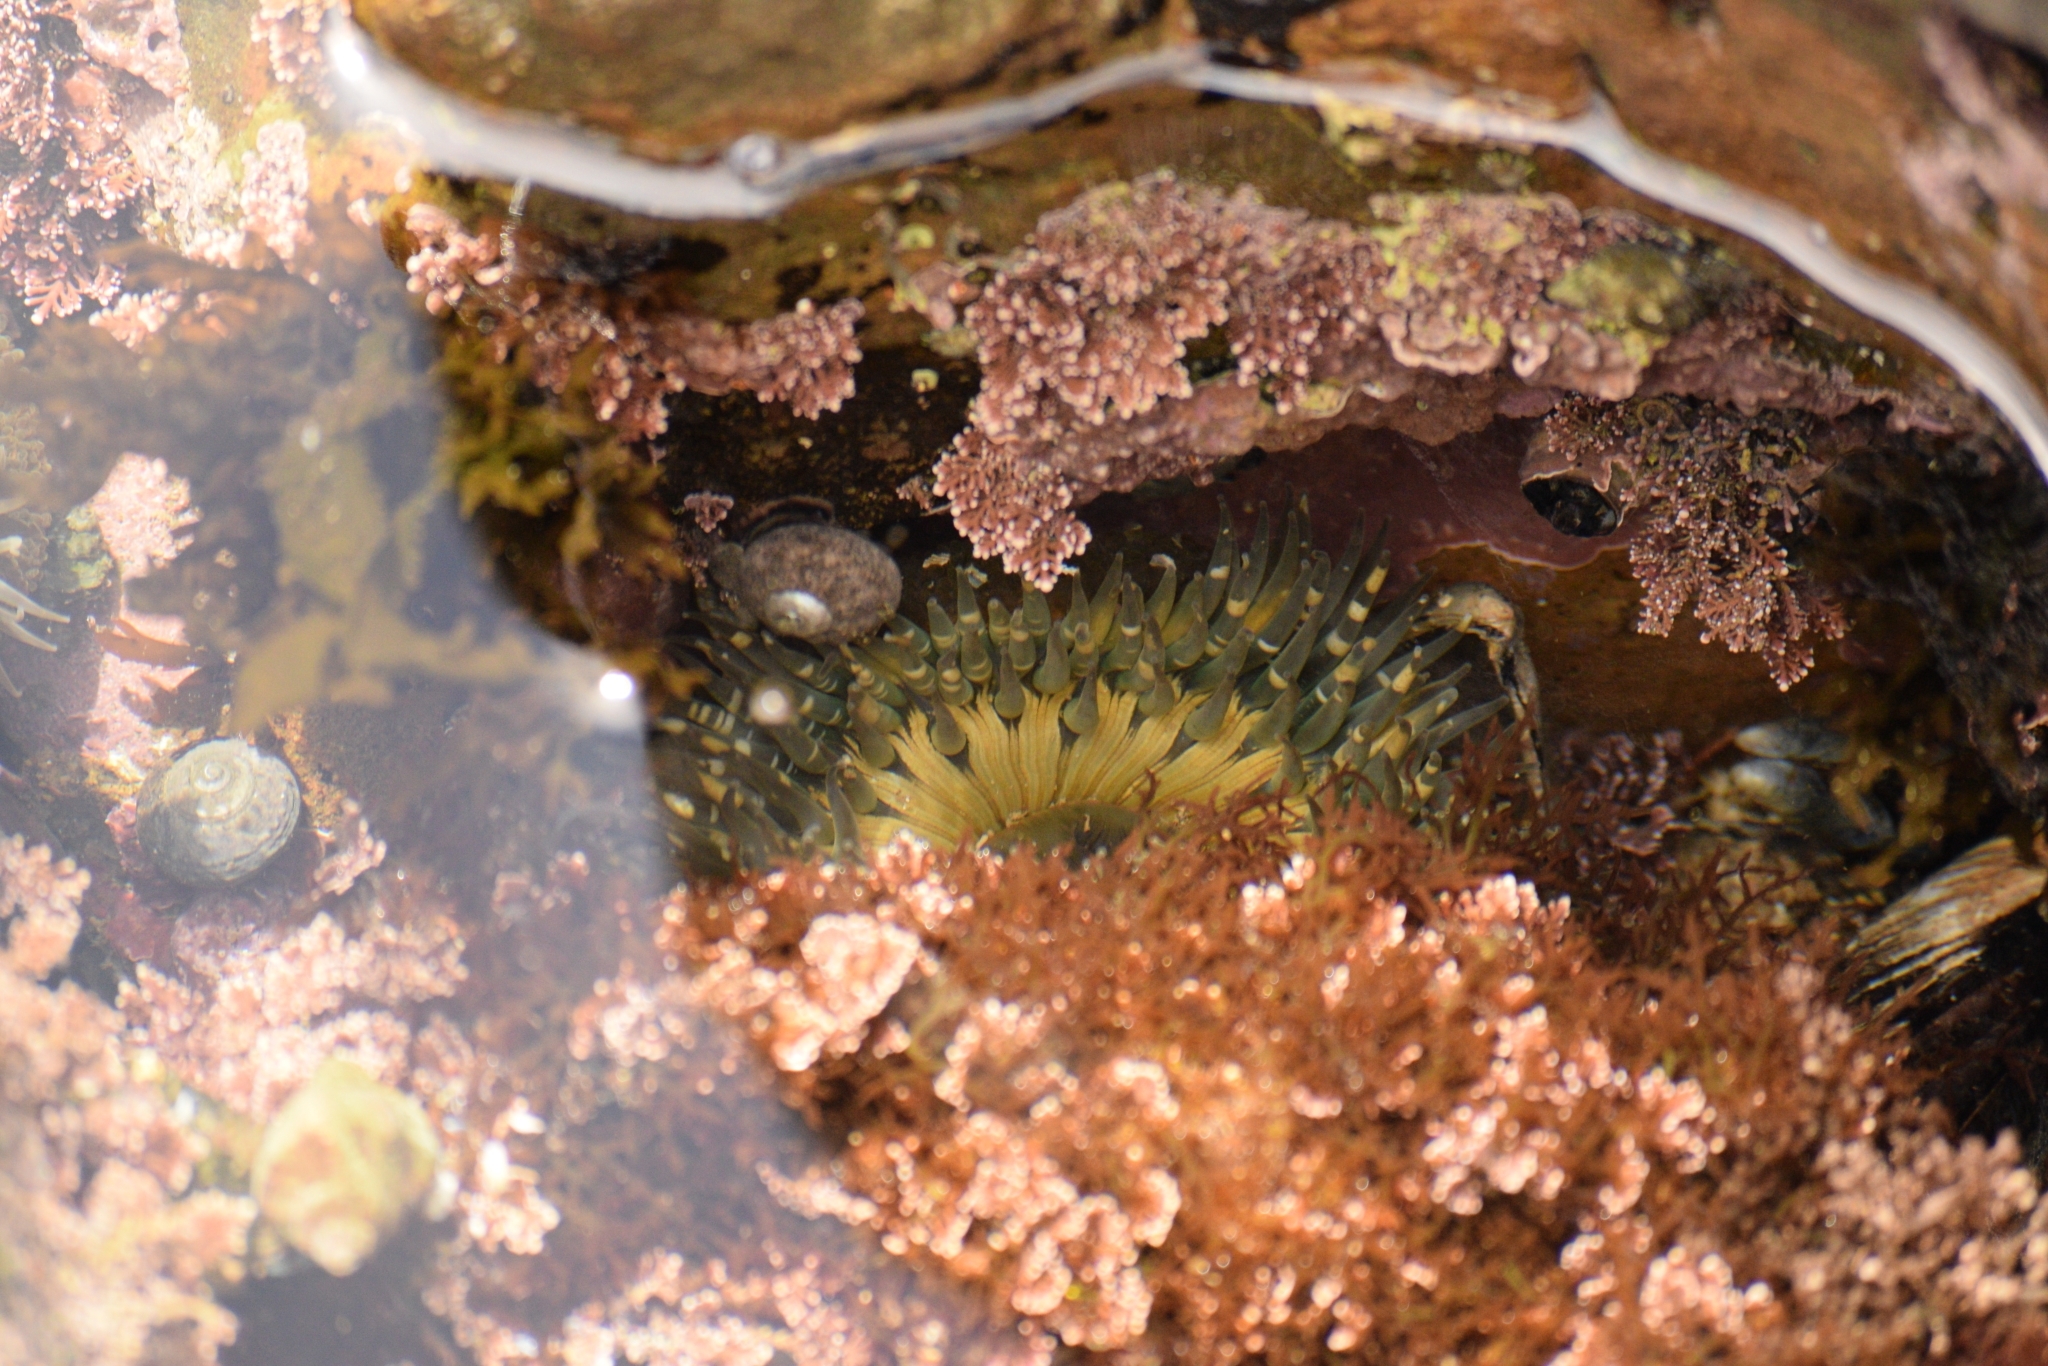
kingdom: Animalia
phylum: Cnidaria
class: Anthozoa
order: Actiniaria
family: Actiniidae
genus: Anthopleura
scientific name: Anthopleura sola
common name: Sun anemone
